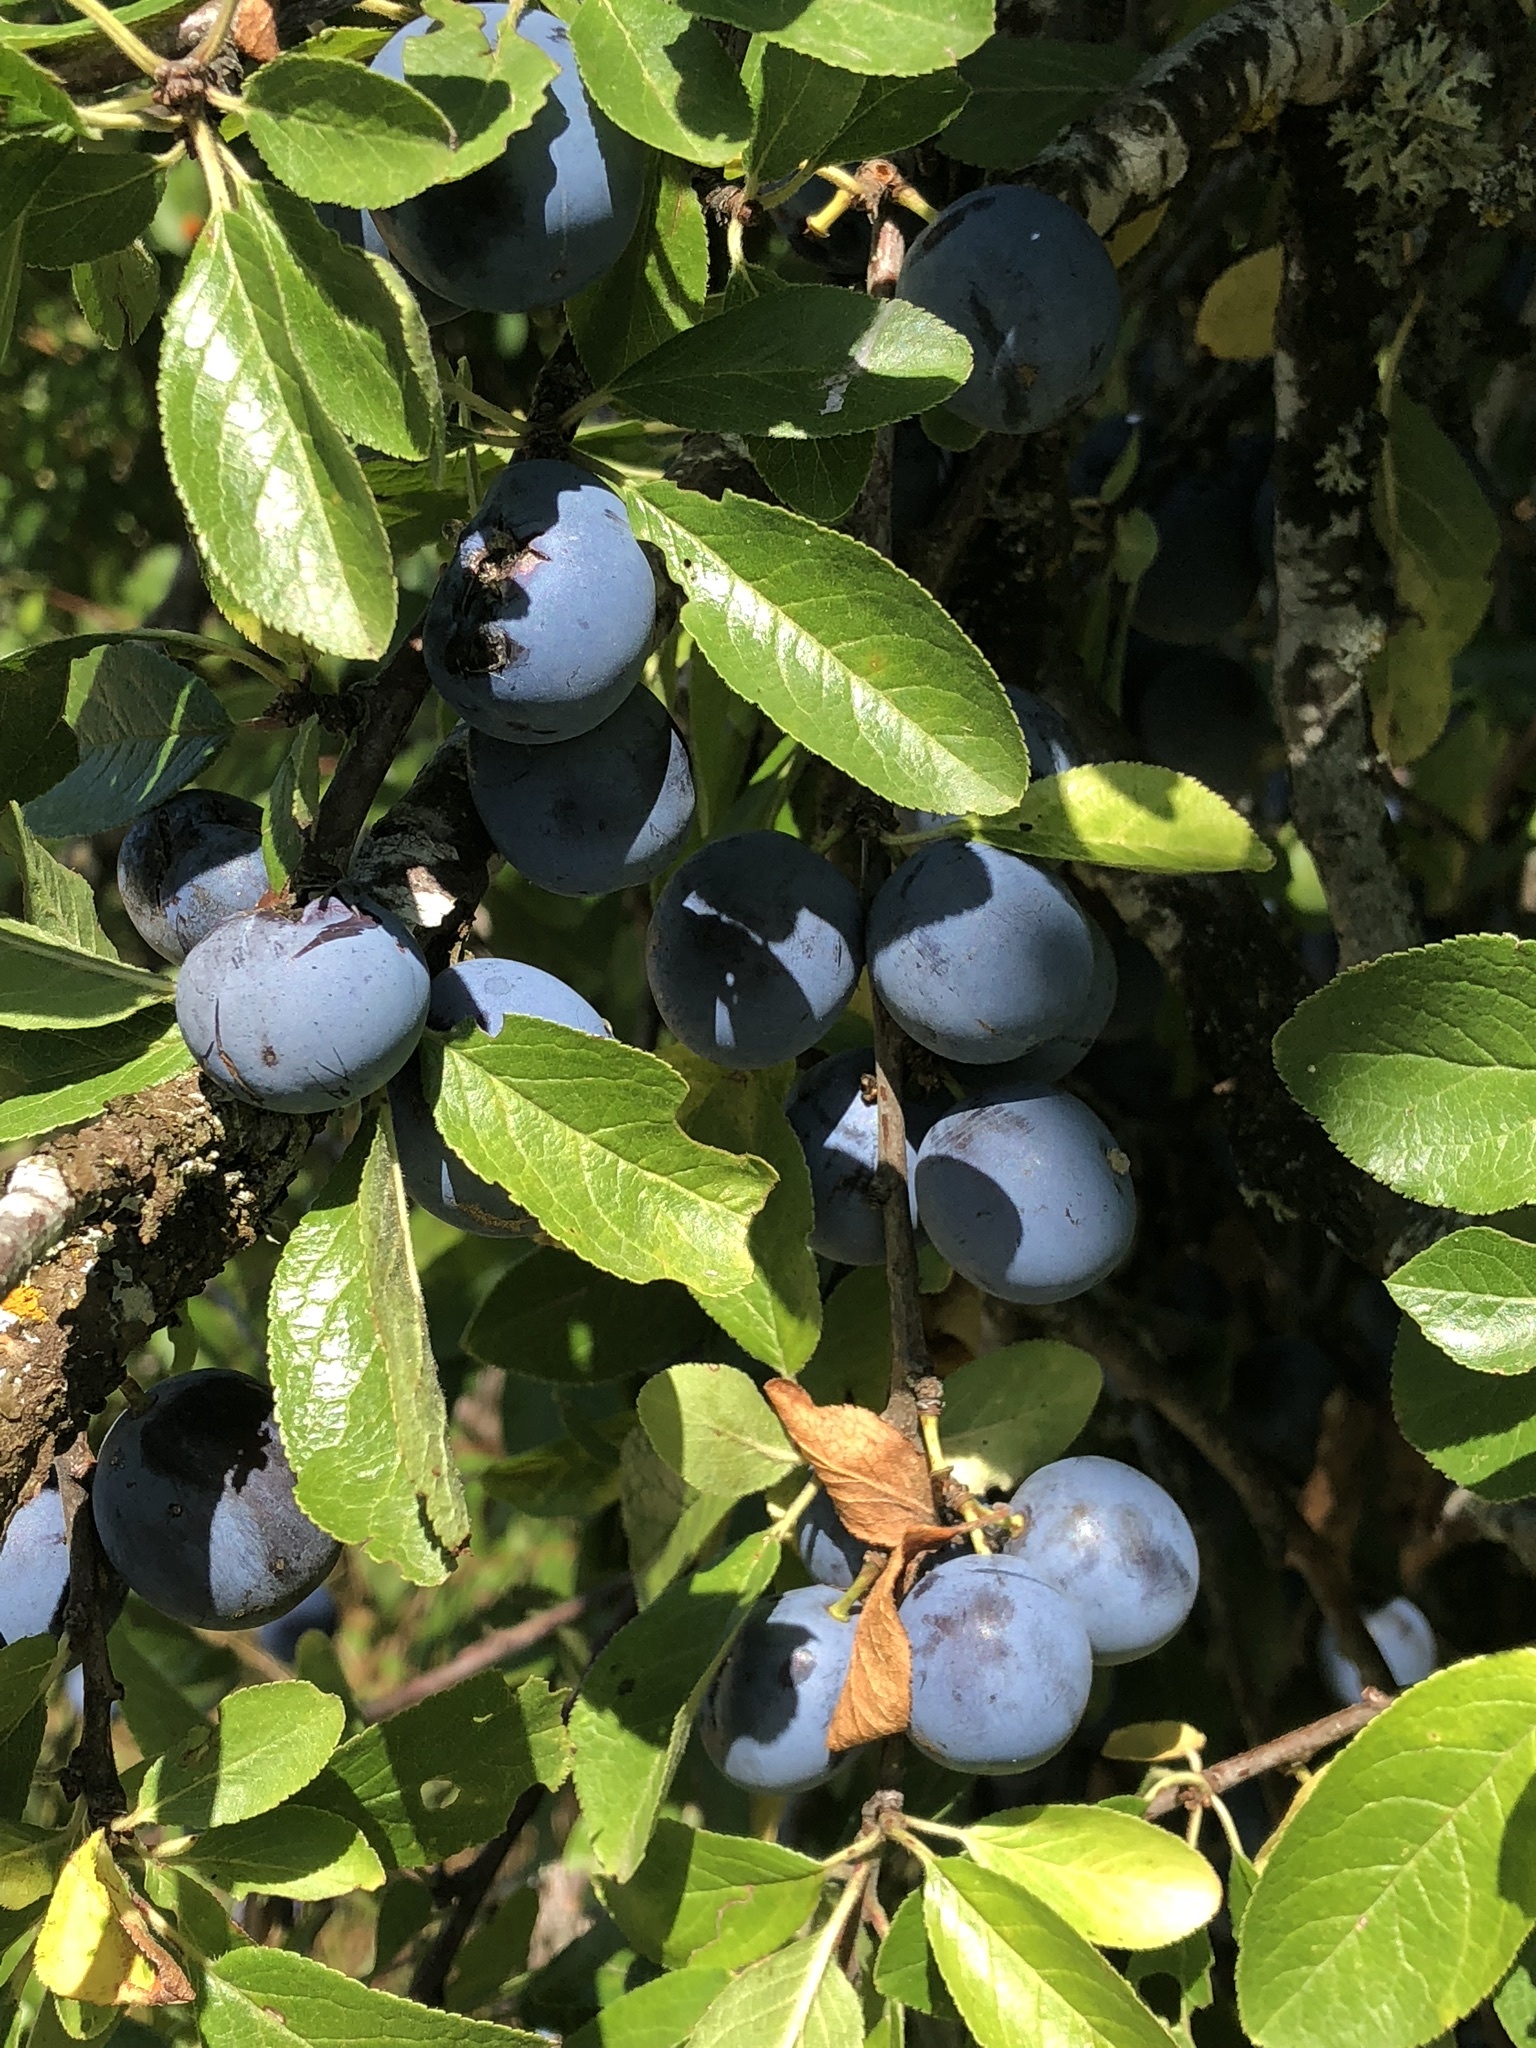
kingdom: Plantae
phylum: Tracheophyta
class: Magnoliopsida
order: Rosales
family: Rosaceae
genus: Prunus
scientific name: Prunus spinosa
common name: Blackthorn
